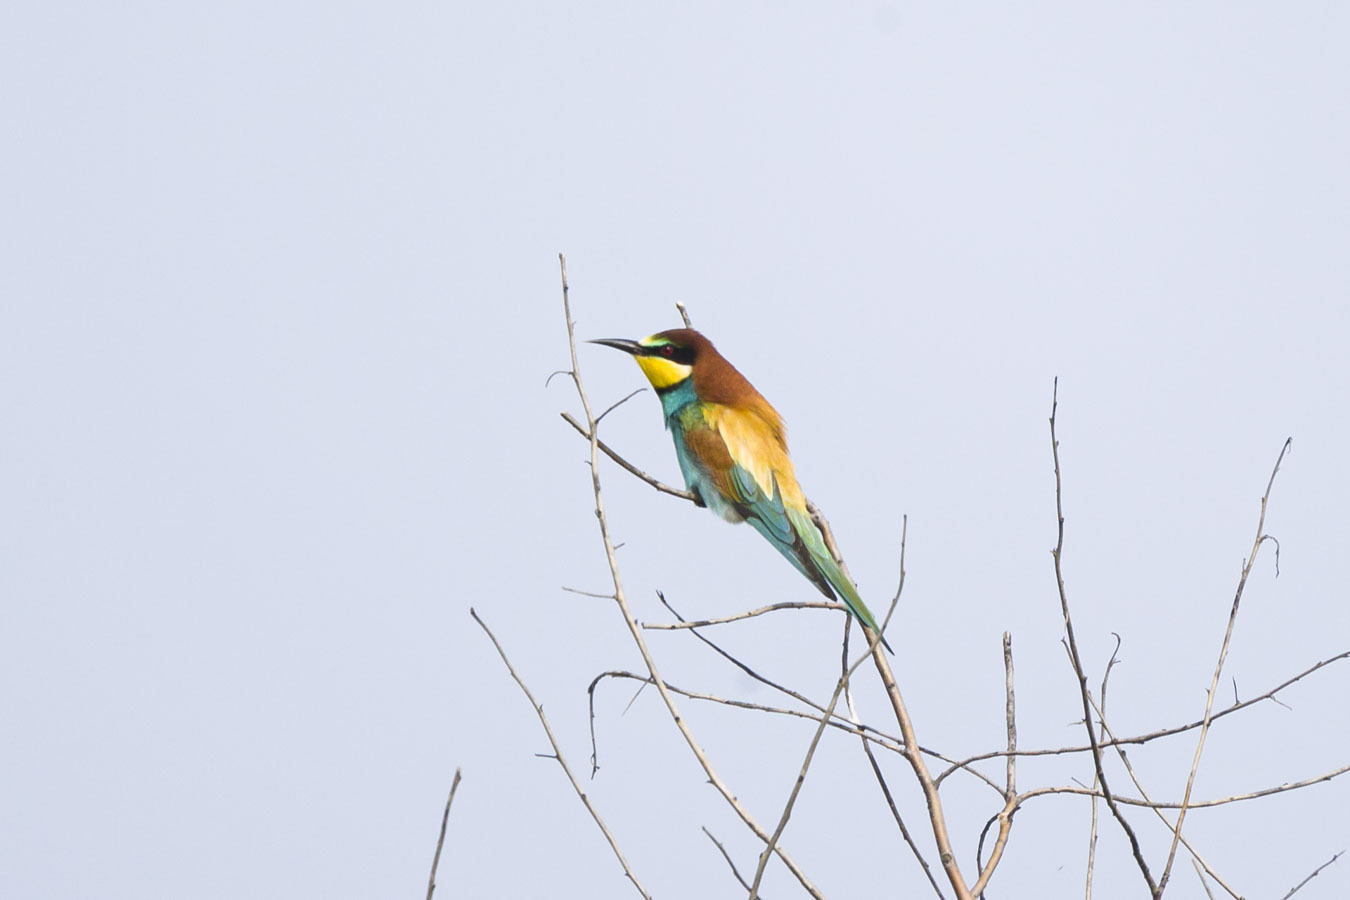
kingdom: Animalia
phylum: Chordata
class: Aves
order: Coraciiformes
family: Meropidae
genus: Merops
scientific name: Merops apiaster
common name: European bee-eater
